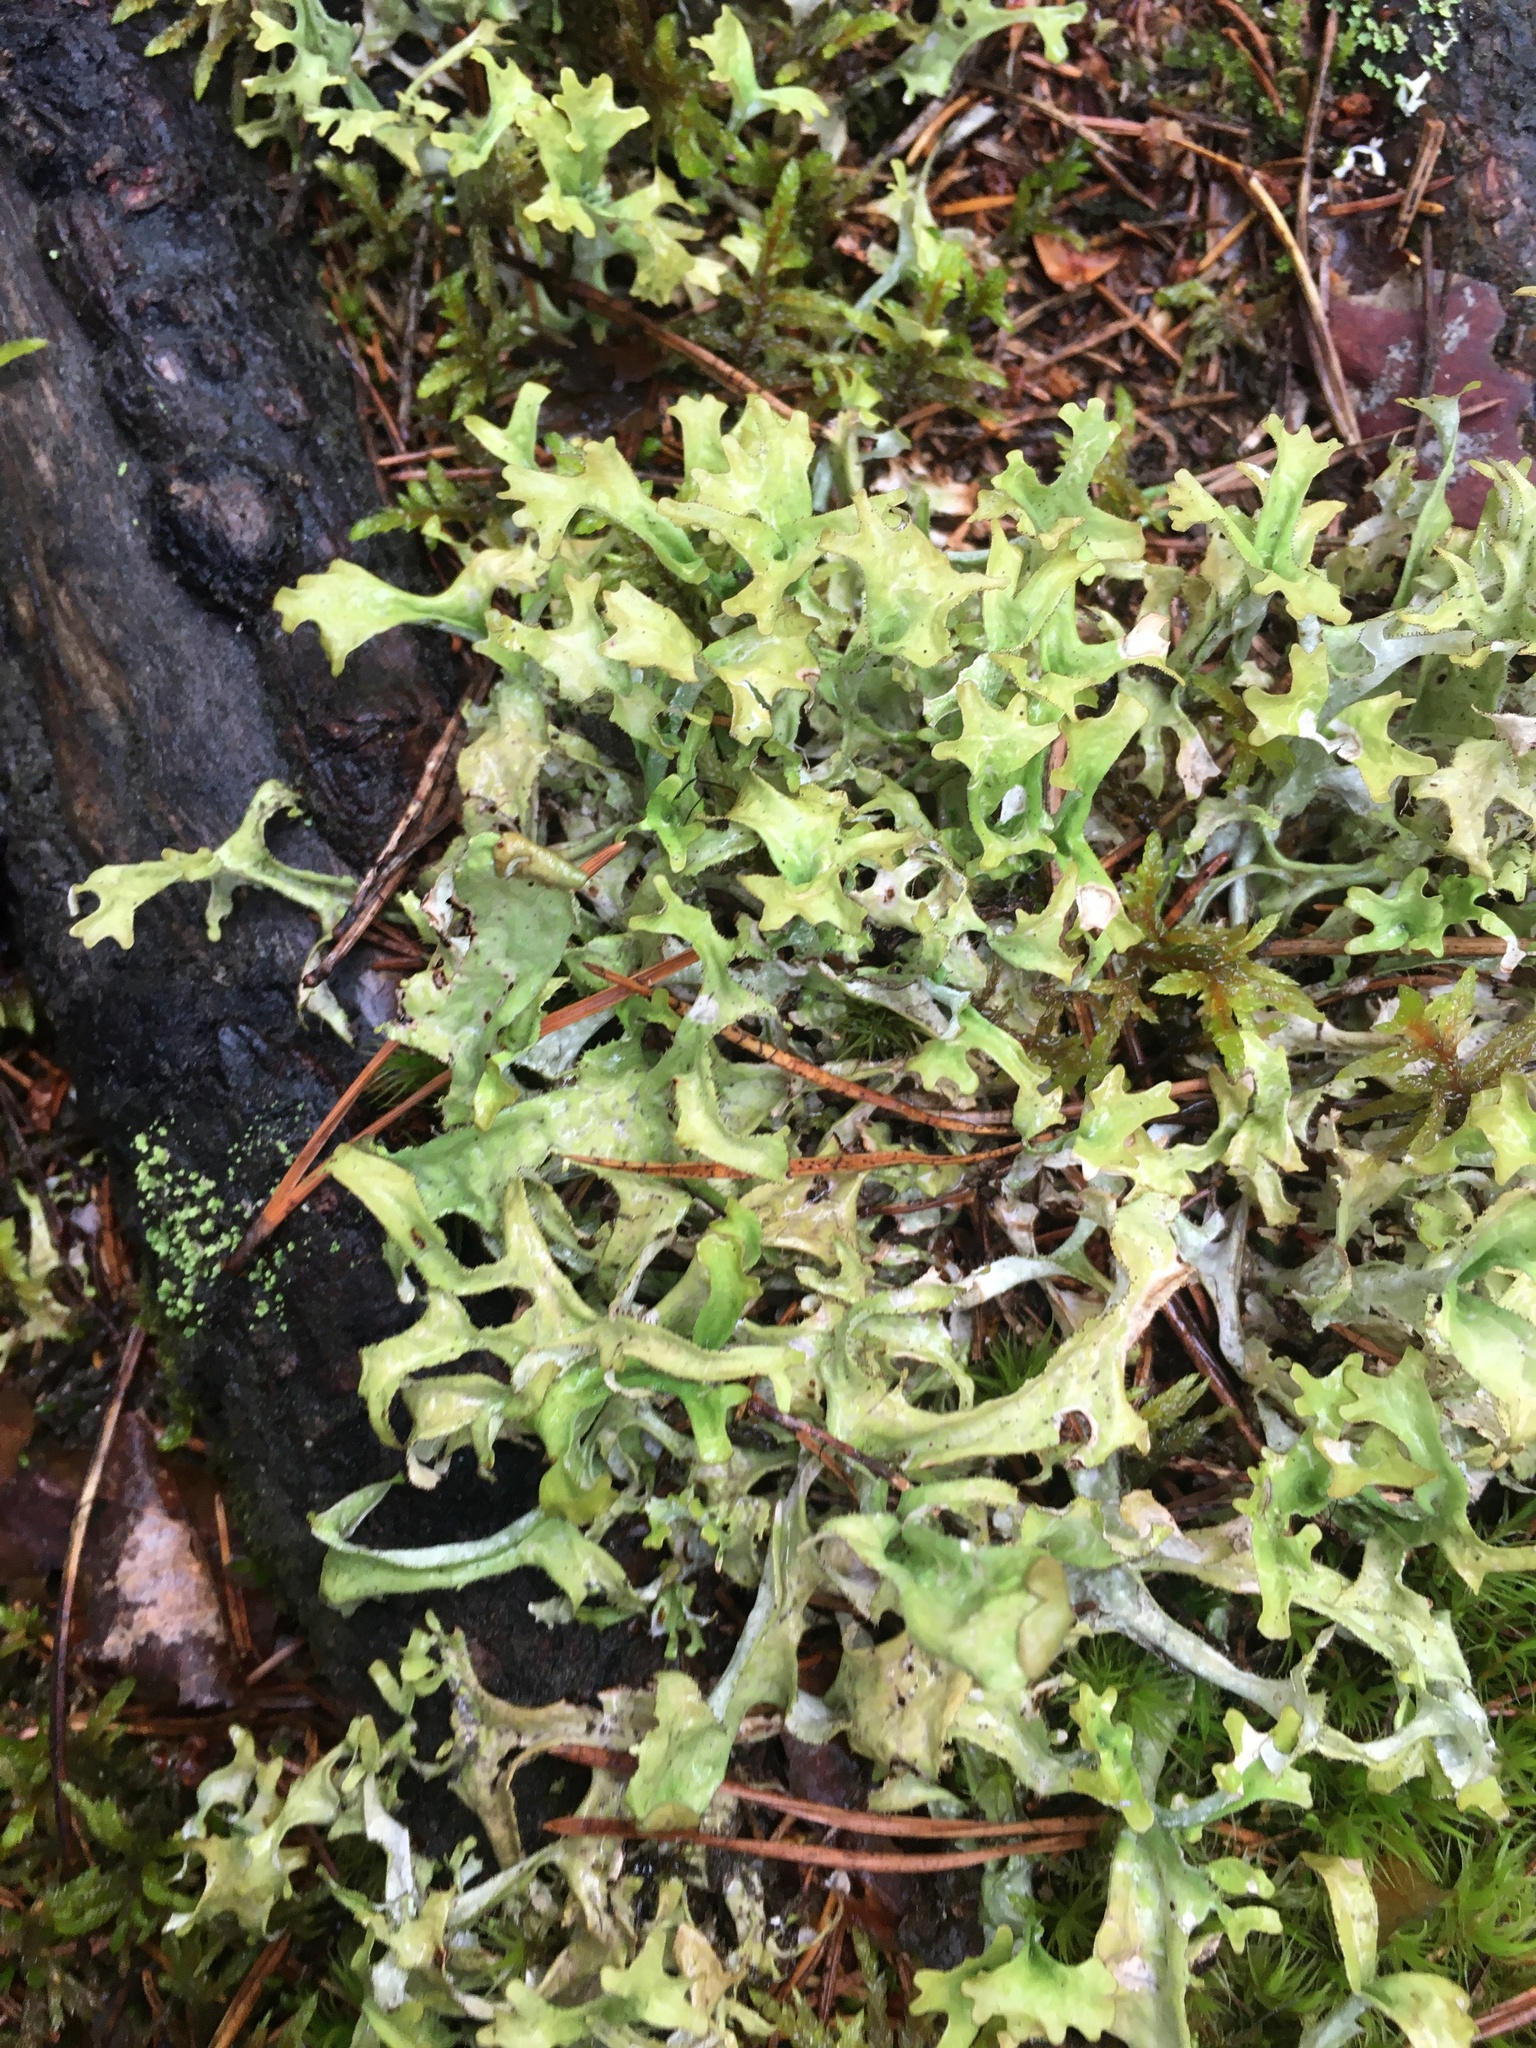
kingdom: Fungi
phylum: Ascomycota
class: Lecanoromycetes
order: Lecanorales
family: Parmeliaceae
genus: Cetraria
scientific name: Cetraria islandica
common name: Iceland lichen
